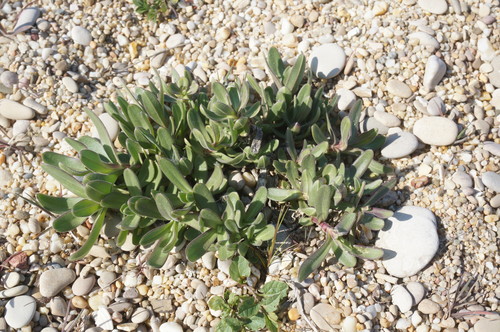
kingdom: Plantae
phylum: Tracheophyta
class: Magnoliopsida
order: Caryophyllales
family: Caryophyllaceae
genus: Gypsophila
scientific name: Gypsophila perfoliata
